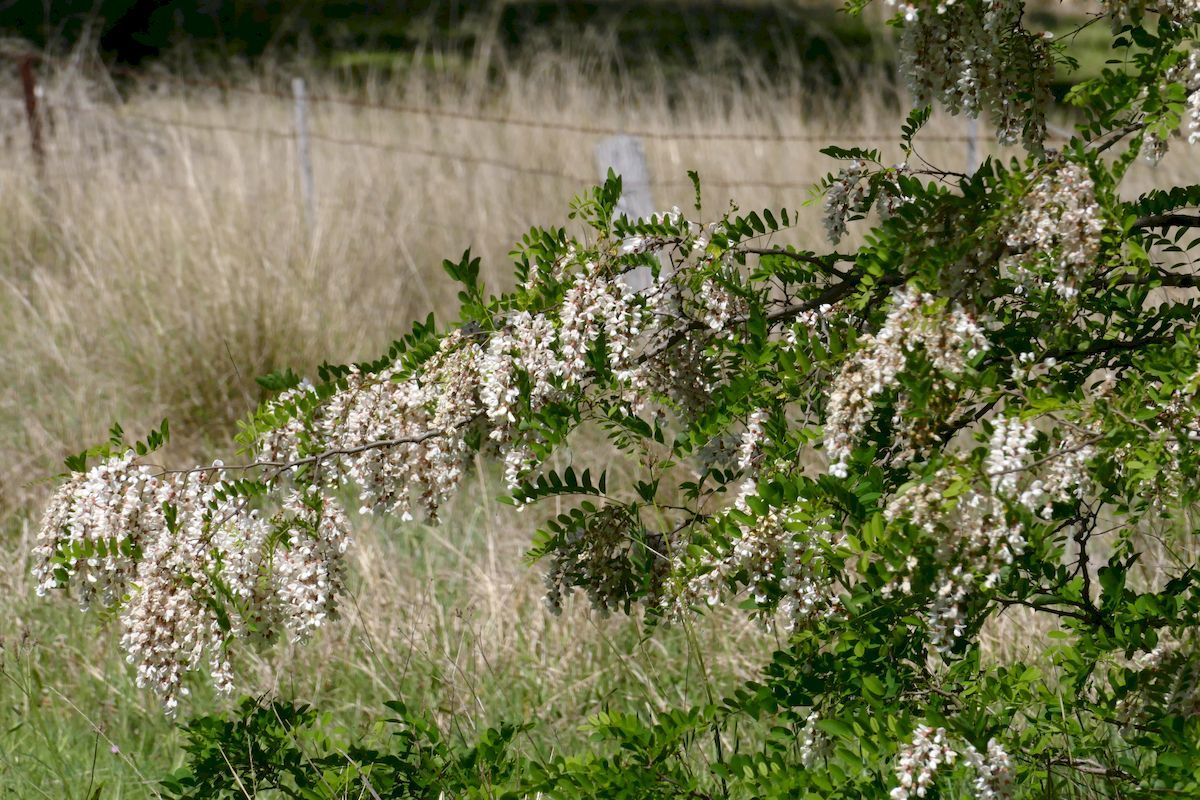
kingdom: Plantae
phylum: Tracheophyta
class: Magnoliopsida
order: Fabales
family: Fabaceae
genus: Robinia
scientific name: Robinia pseudoacacia
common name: Black locust
